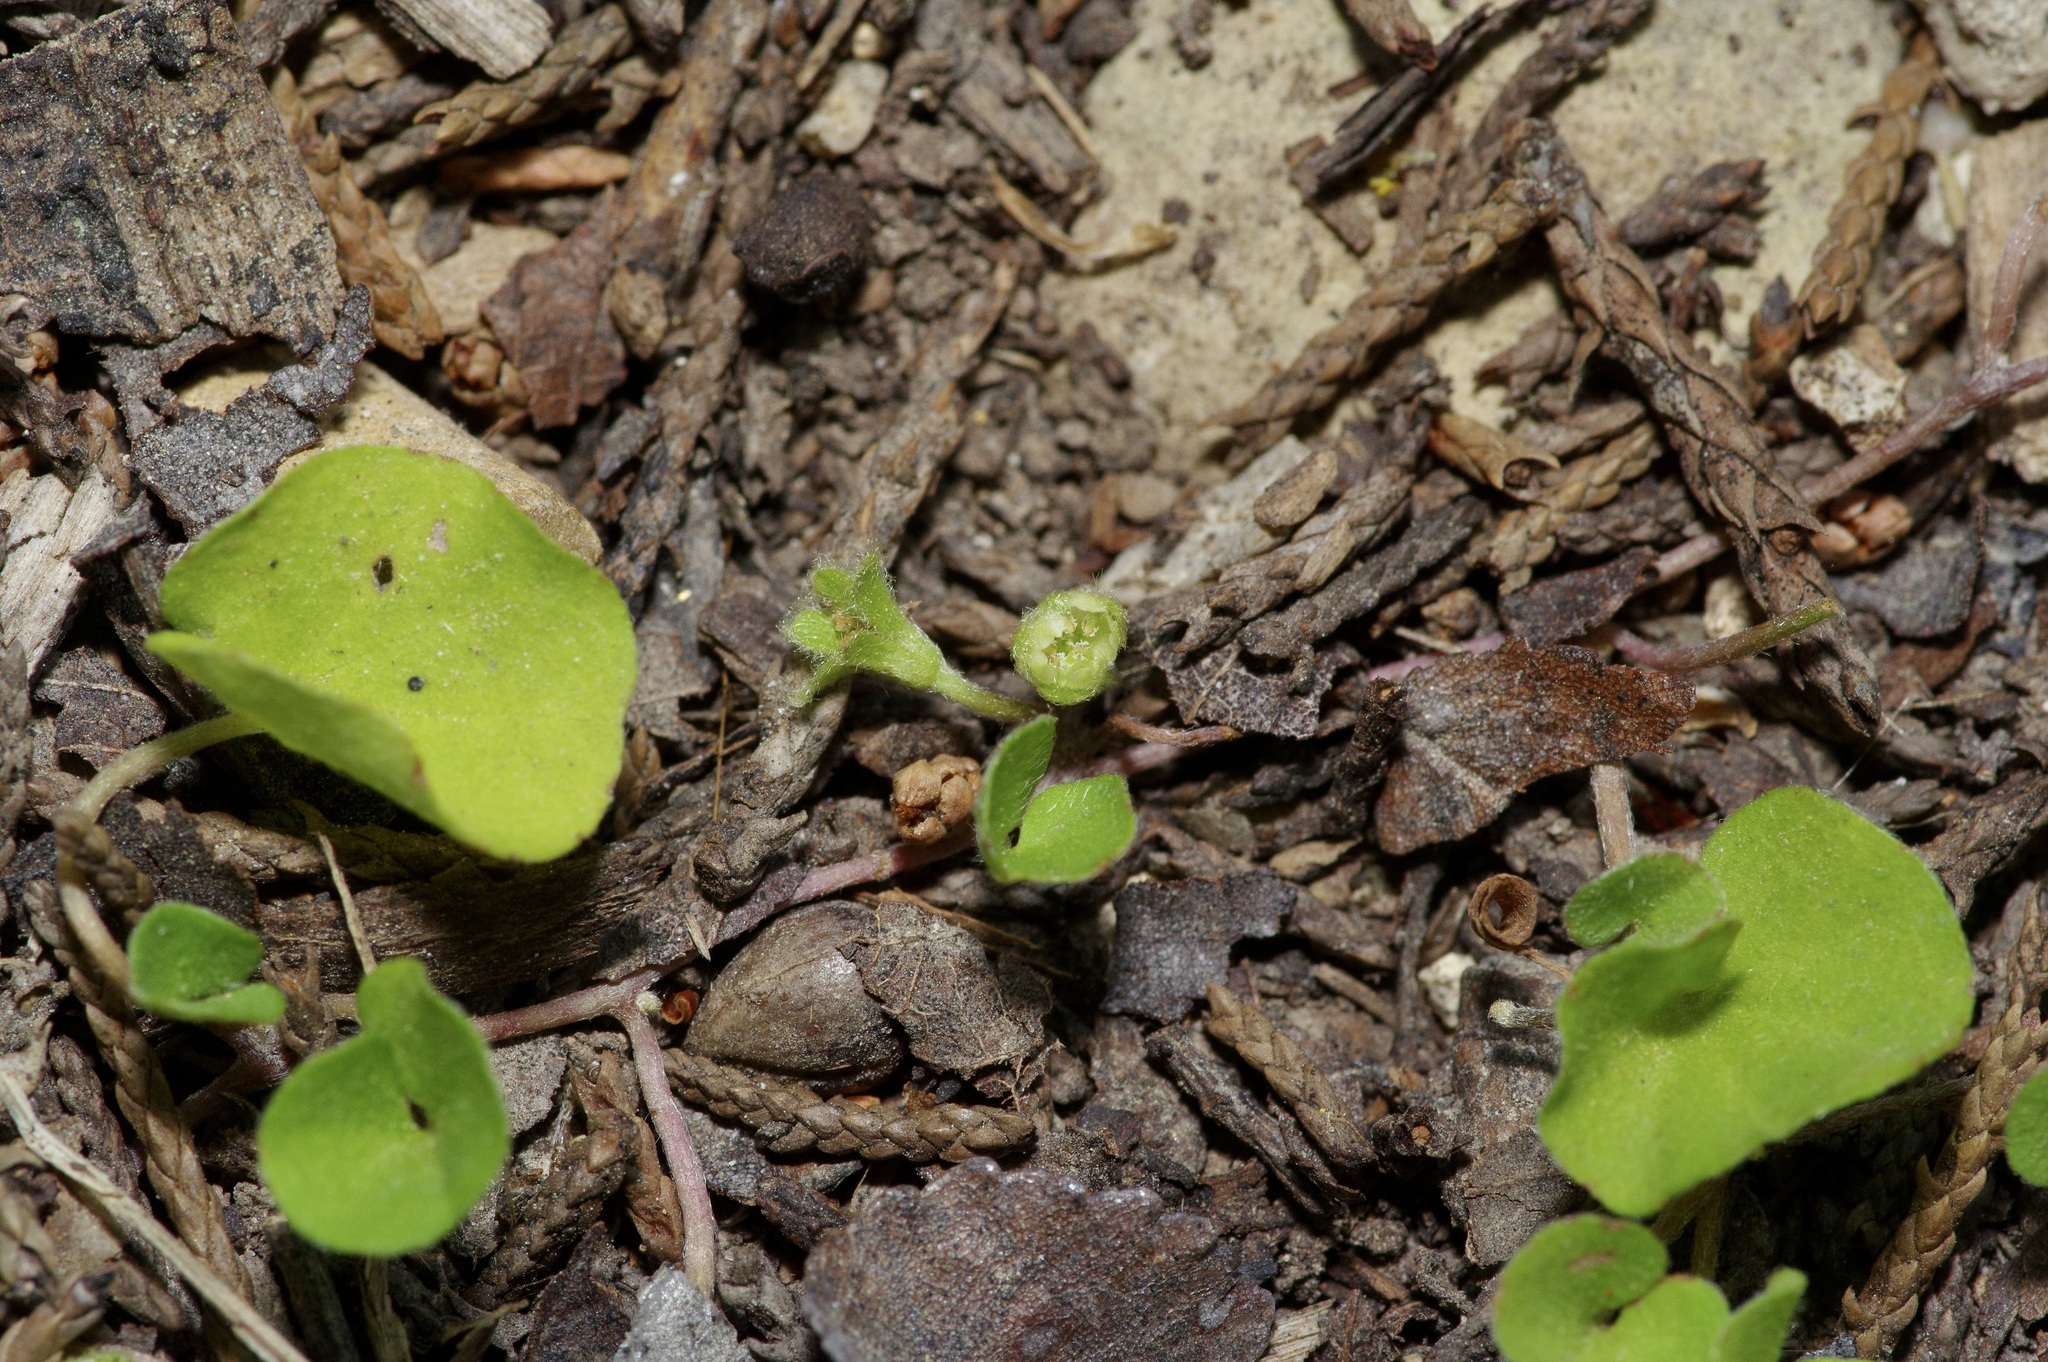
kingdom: Plantae
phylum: Tracheophyta
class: Magnoliopsida
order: Solanales
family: Convolvulaceae
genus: Dichondra
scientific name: Dichondra carolinensis
